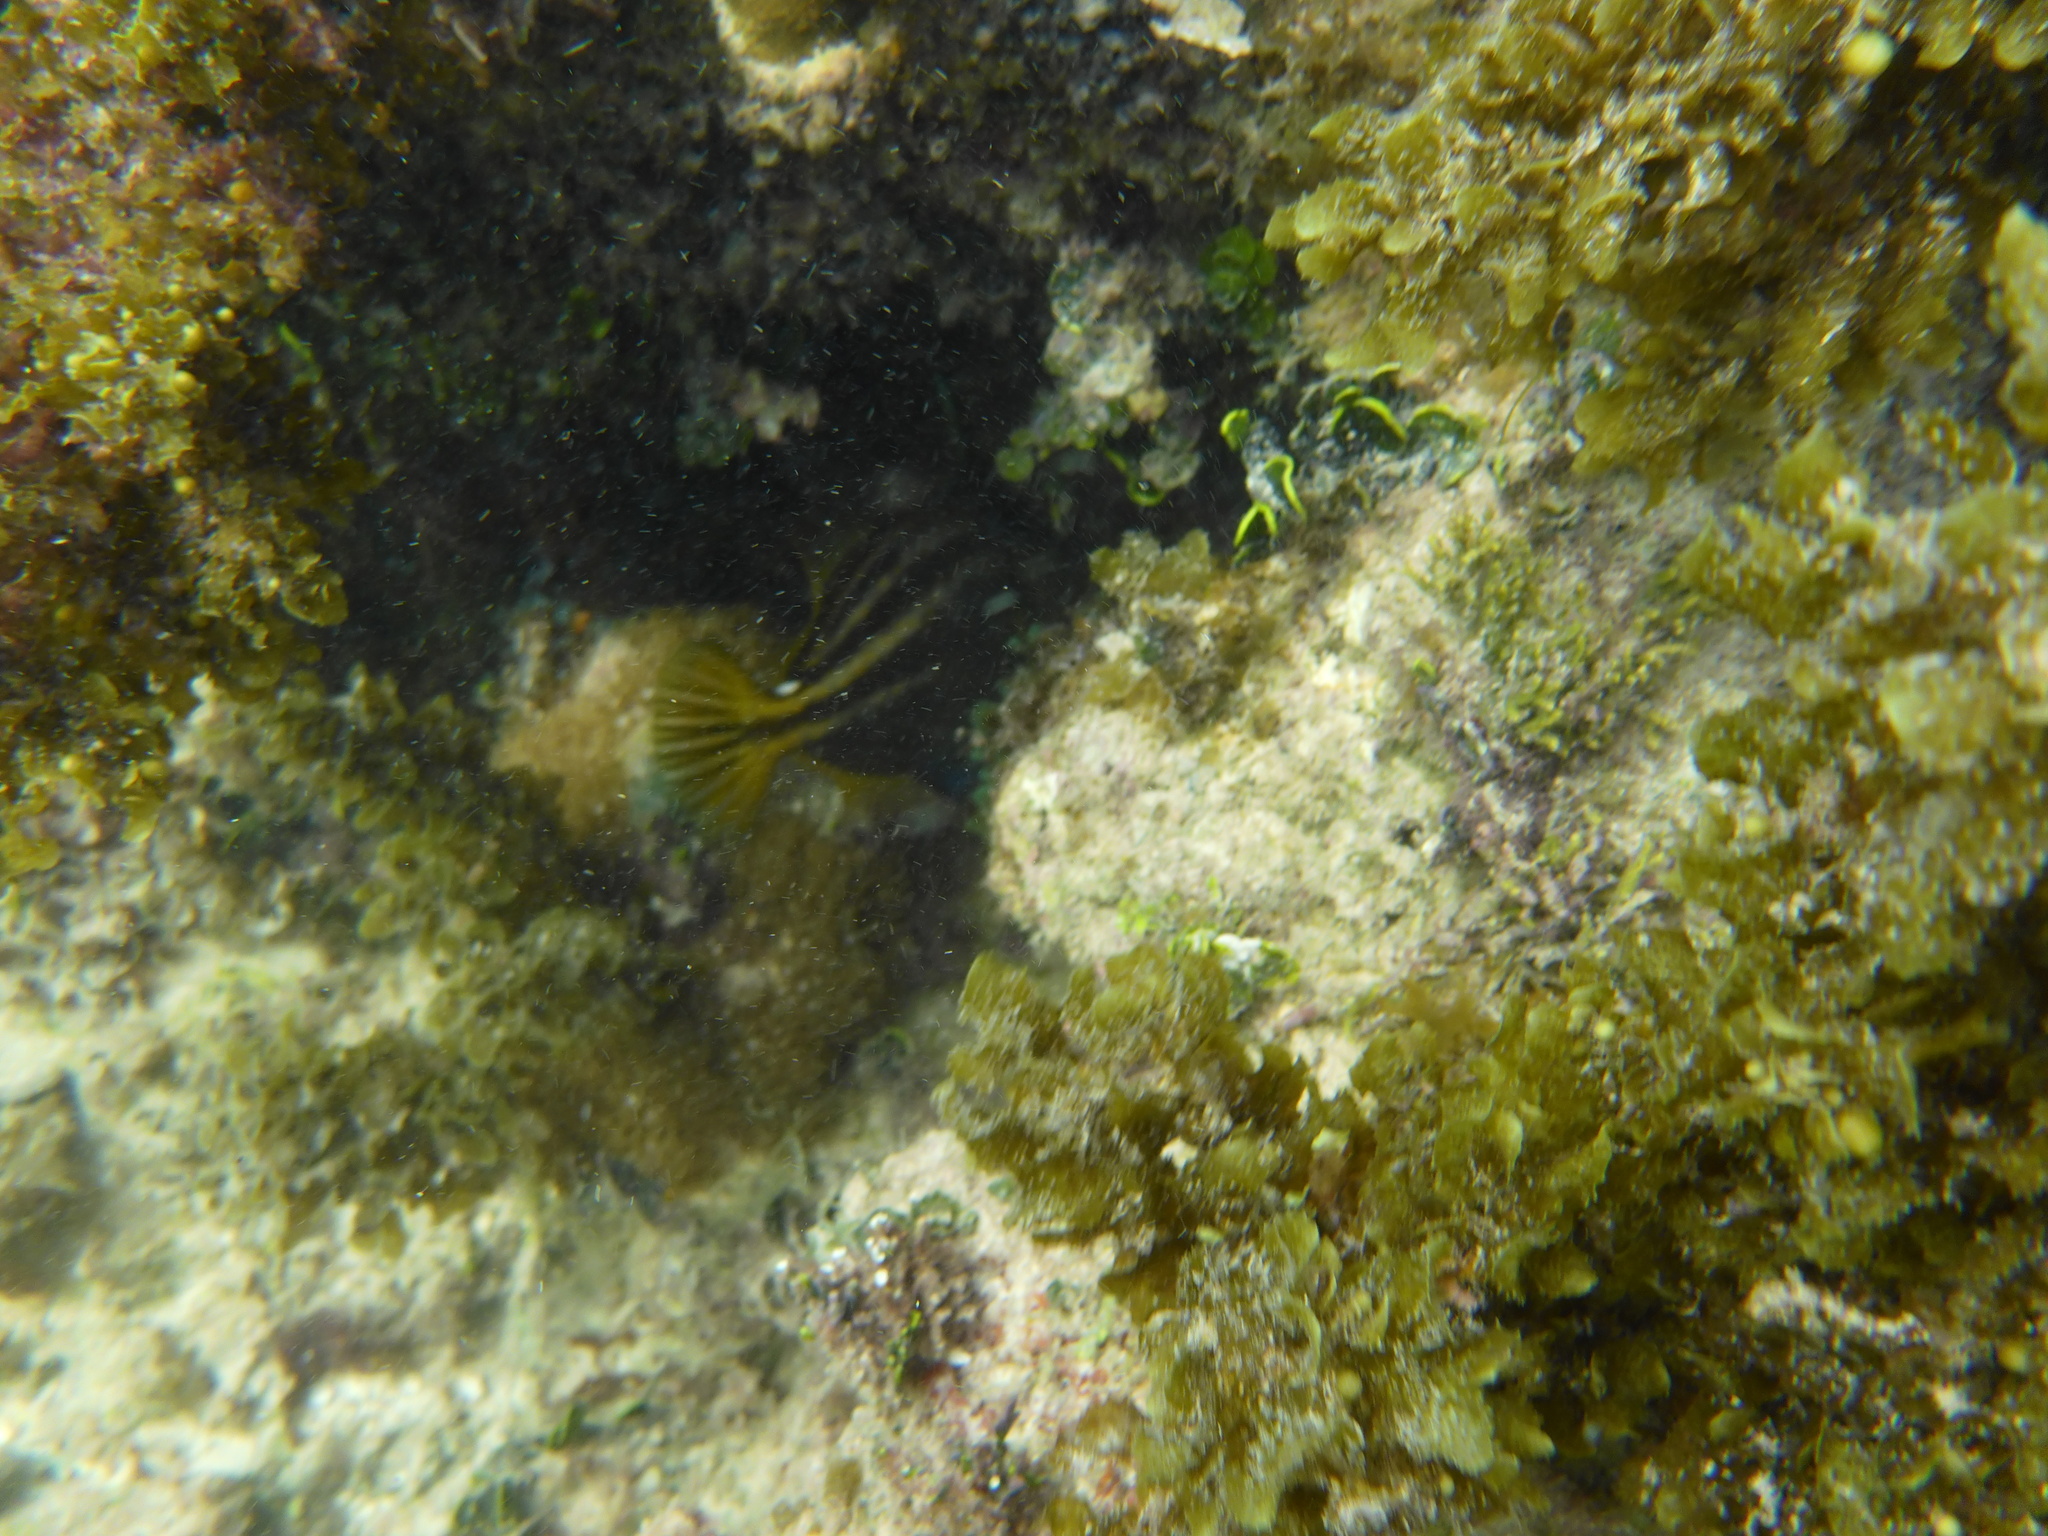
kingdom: Animalia
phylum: Chordata
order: Tetraodontiformes
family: Monacanthidae
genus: Cantherhines
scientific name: Cantherhines pullus
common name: Orangespotted filefish
